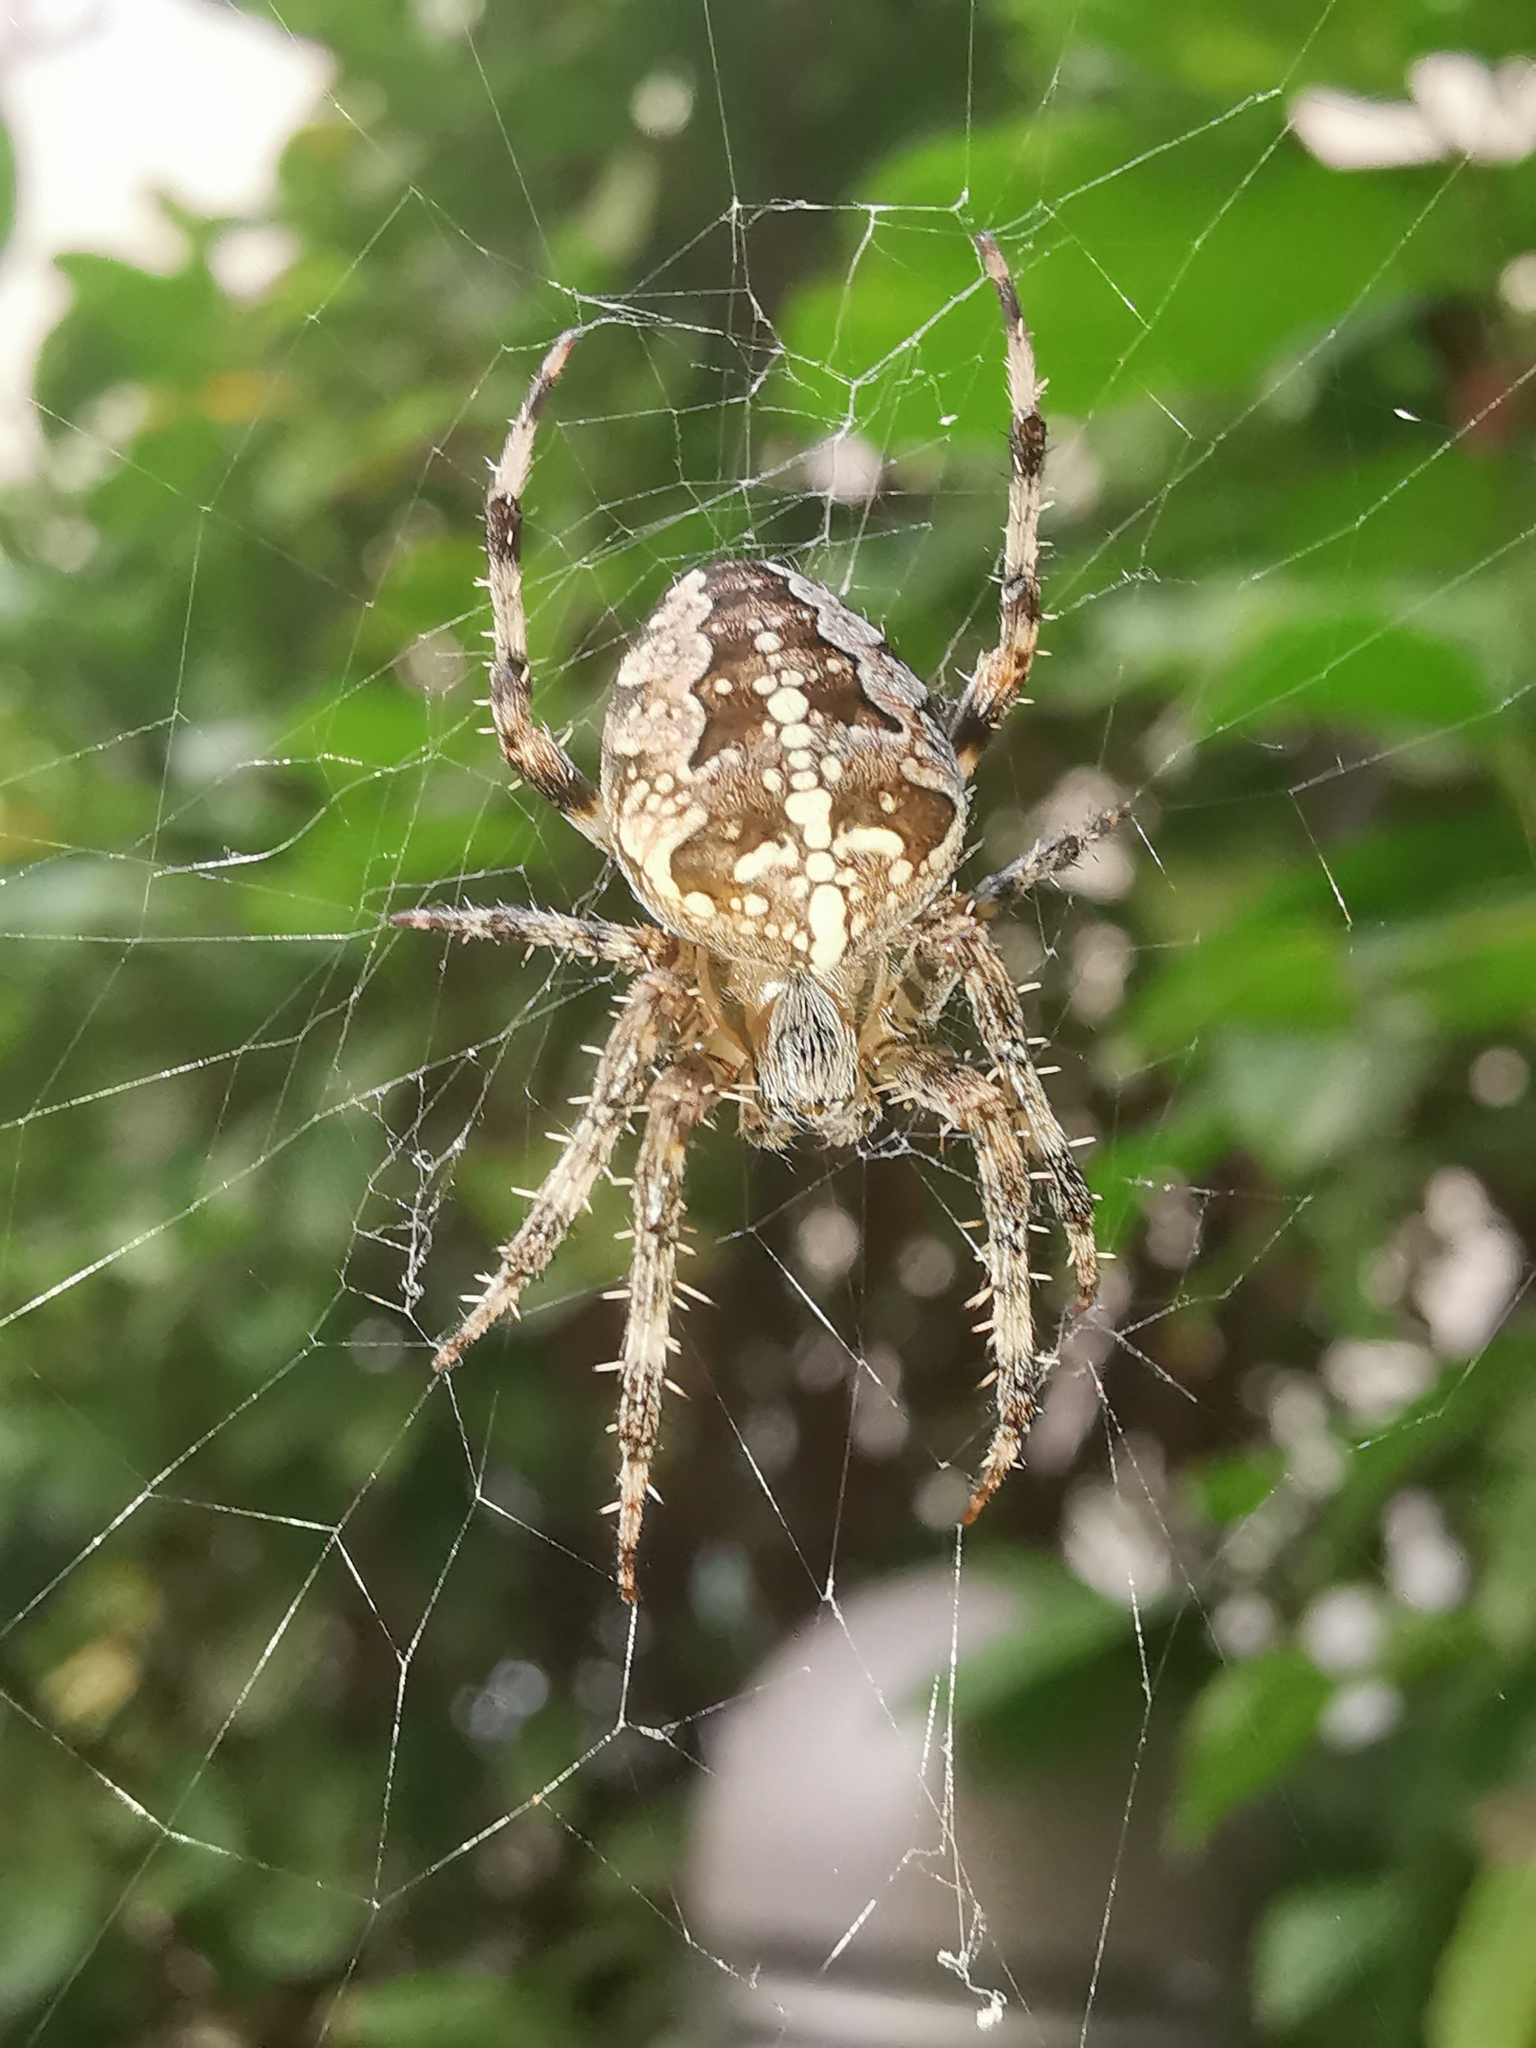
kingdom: Animalia
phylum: Arthropoda
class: Arachnida
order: Araneae
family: Araneidae
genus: Araneus
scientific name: Araneus diadematus
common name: Cross orbweaver
